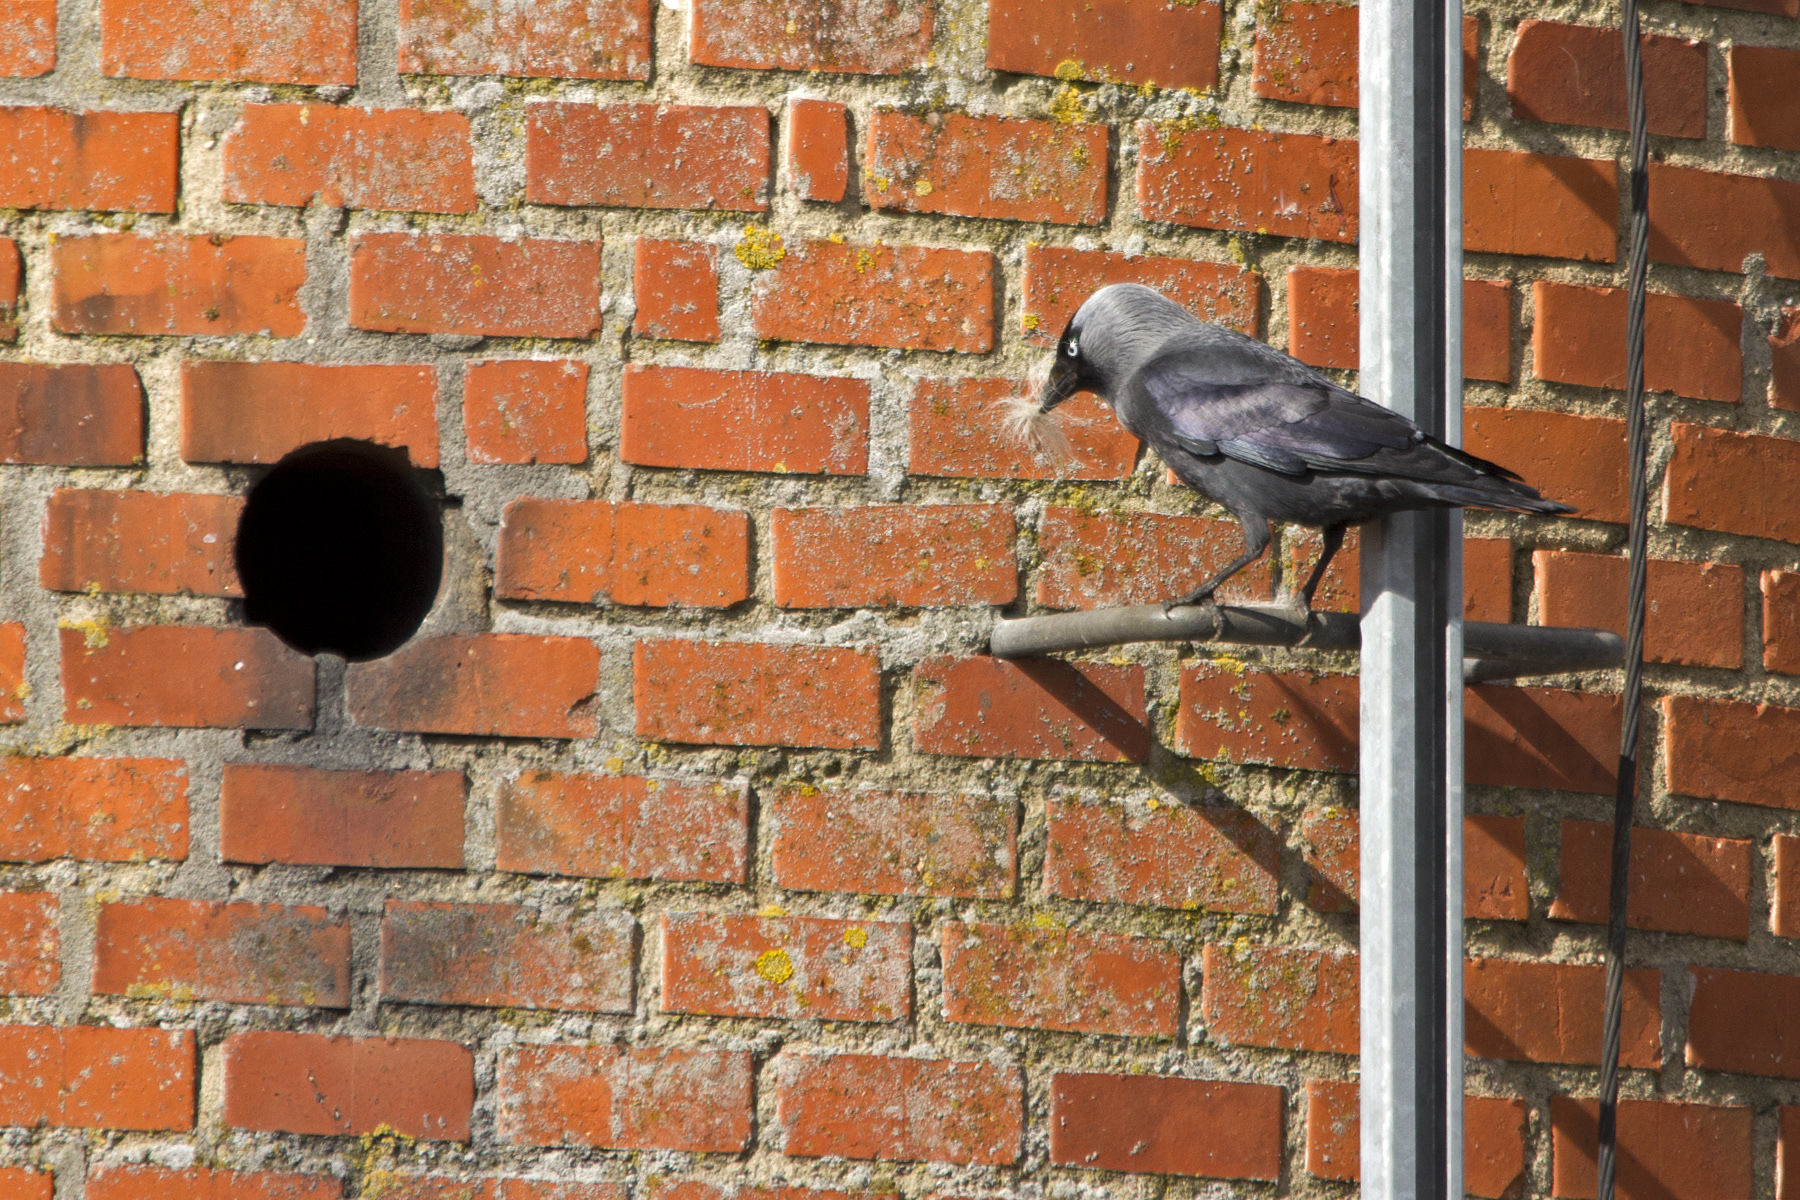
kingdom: Animalia
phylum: Chordata
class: Aves
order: Passeriformes
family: Corvidae
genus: Coloeus
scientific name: Coloeus monedula
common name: Western jackdaw
